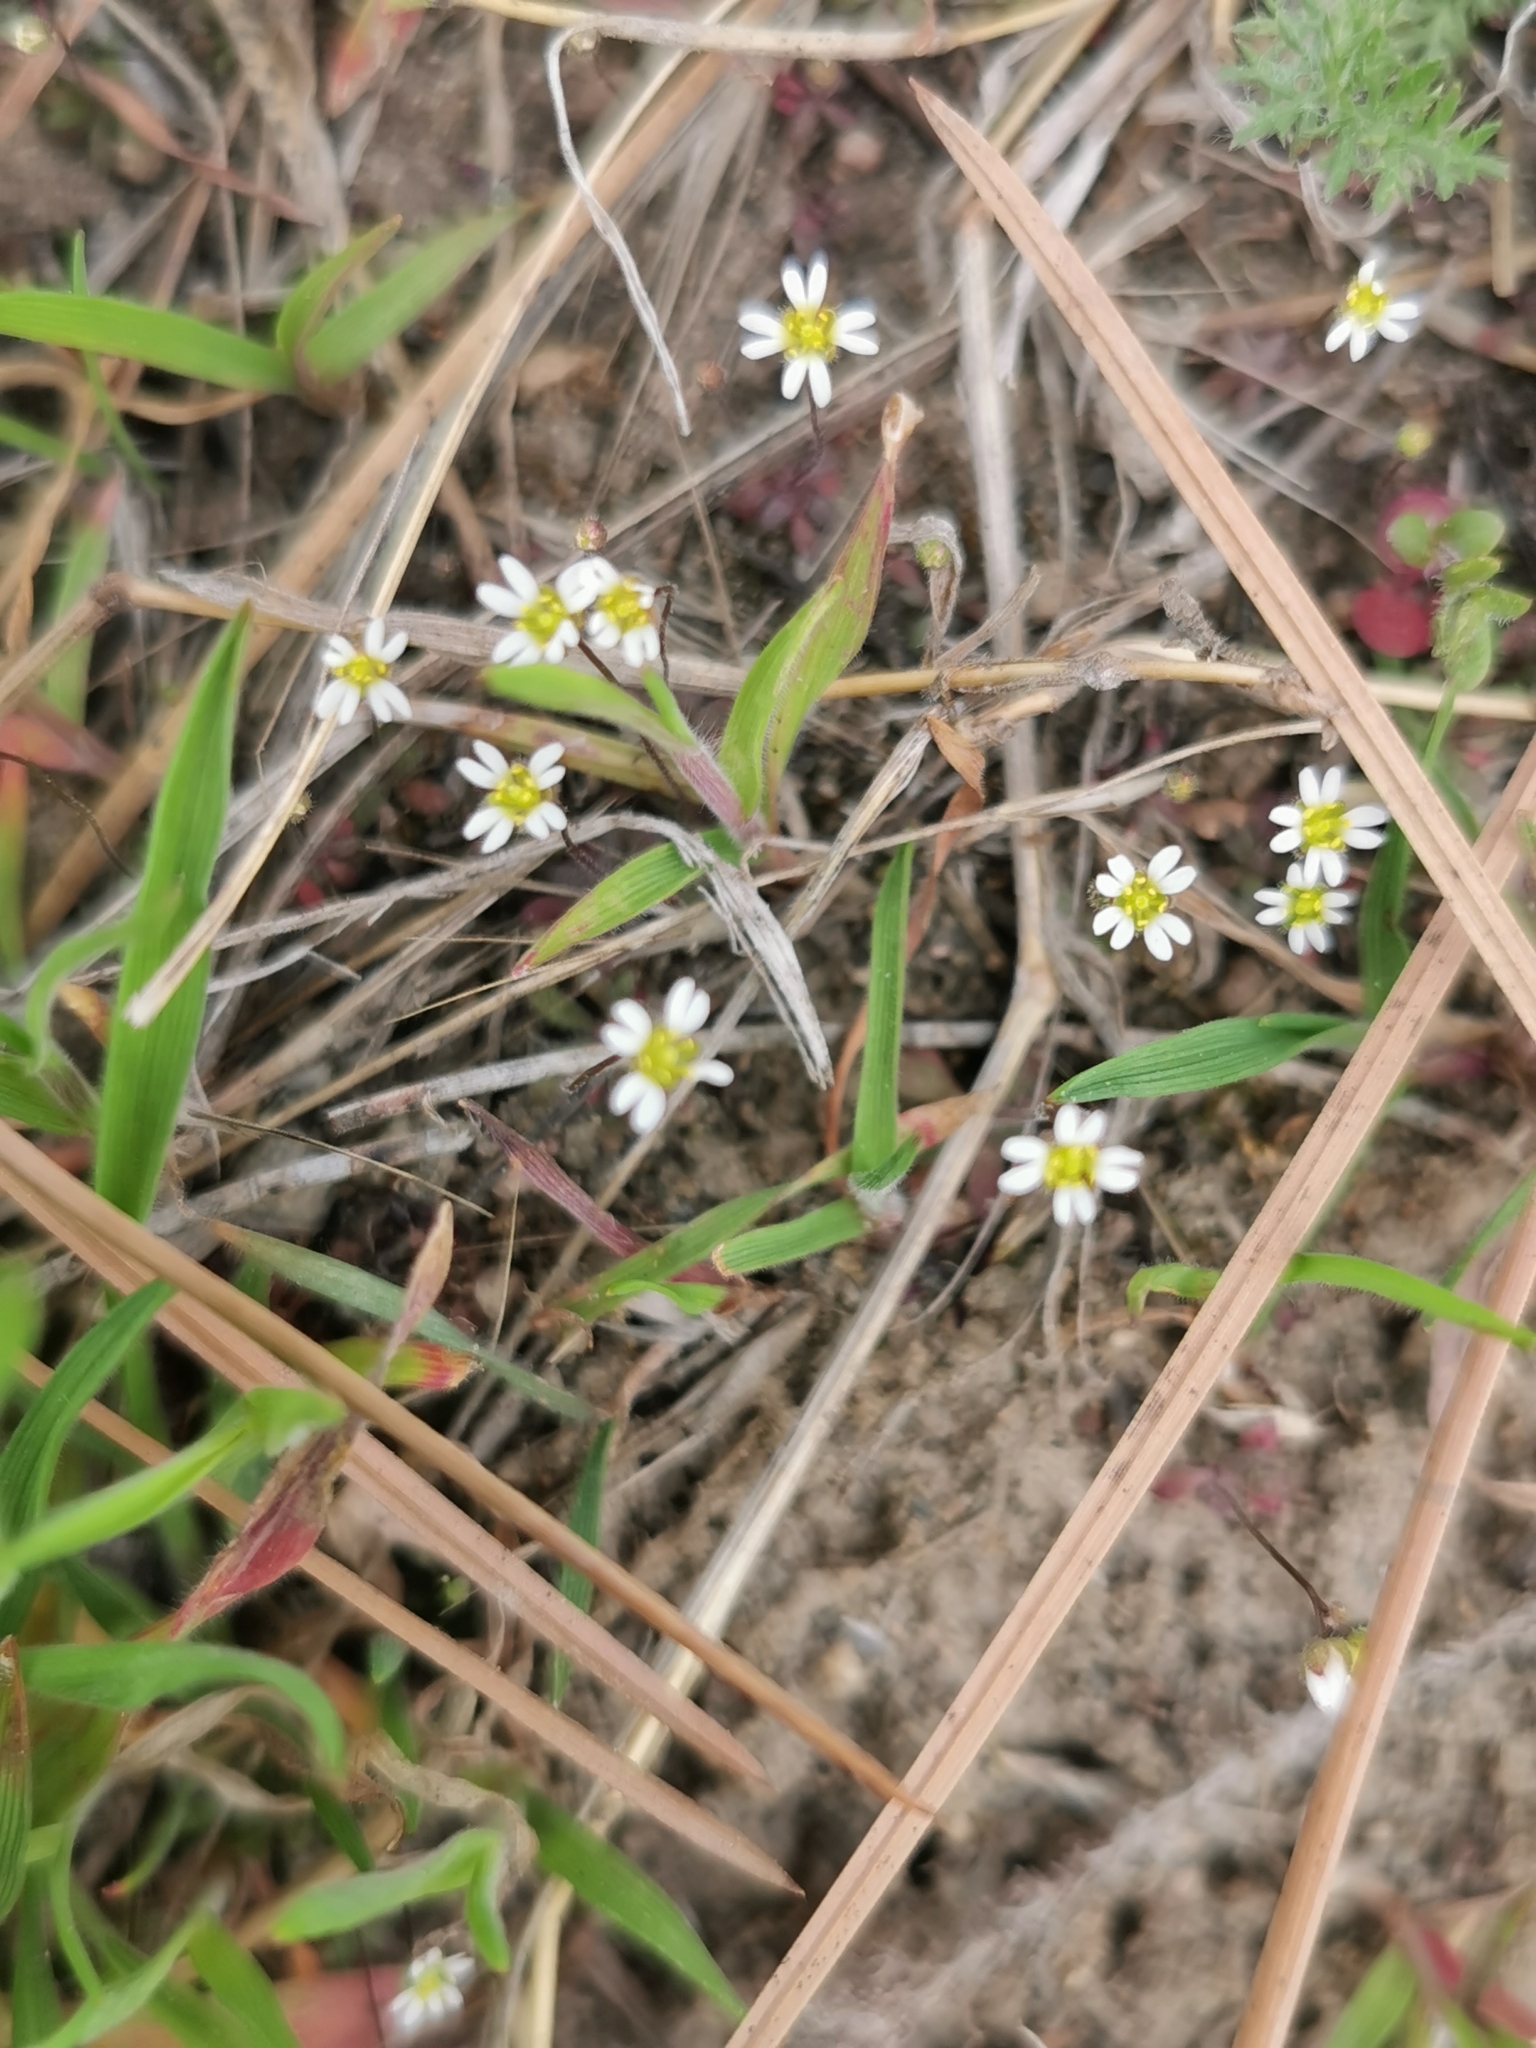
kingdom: Plantae
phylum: Tracheophyta
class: Magnoliopsida
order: Brassicales
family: Brassicaceae
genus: Draba
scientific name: Draba verna
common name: Spring draba
